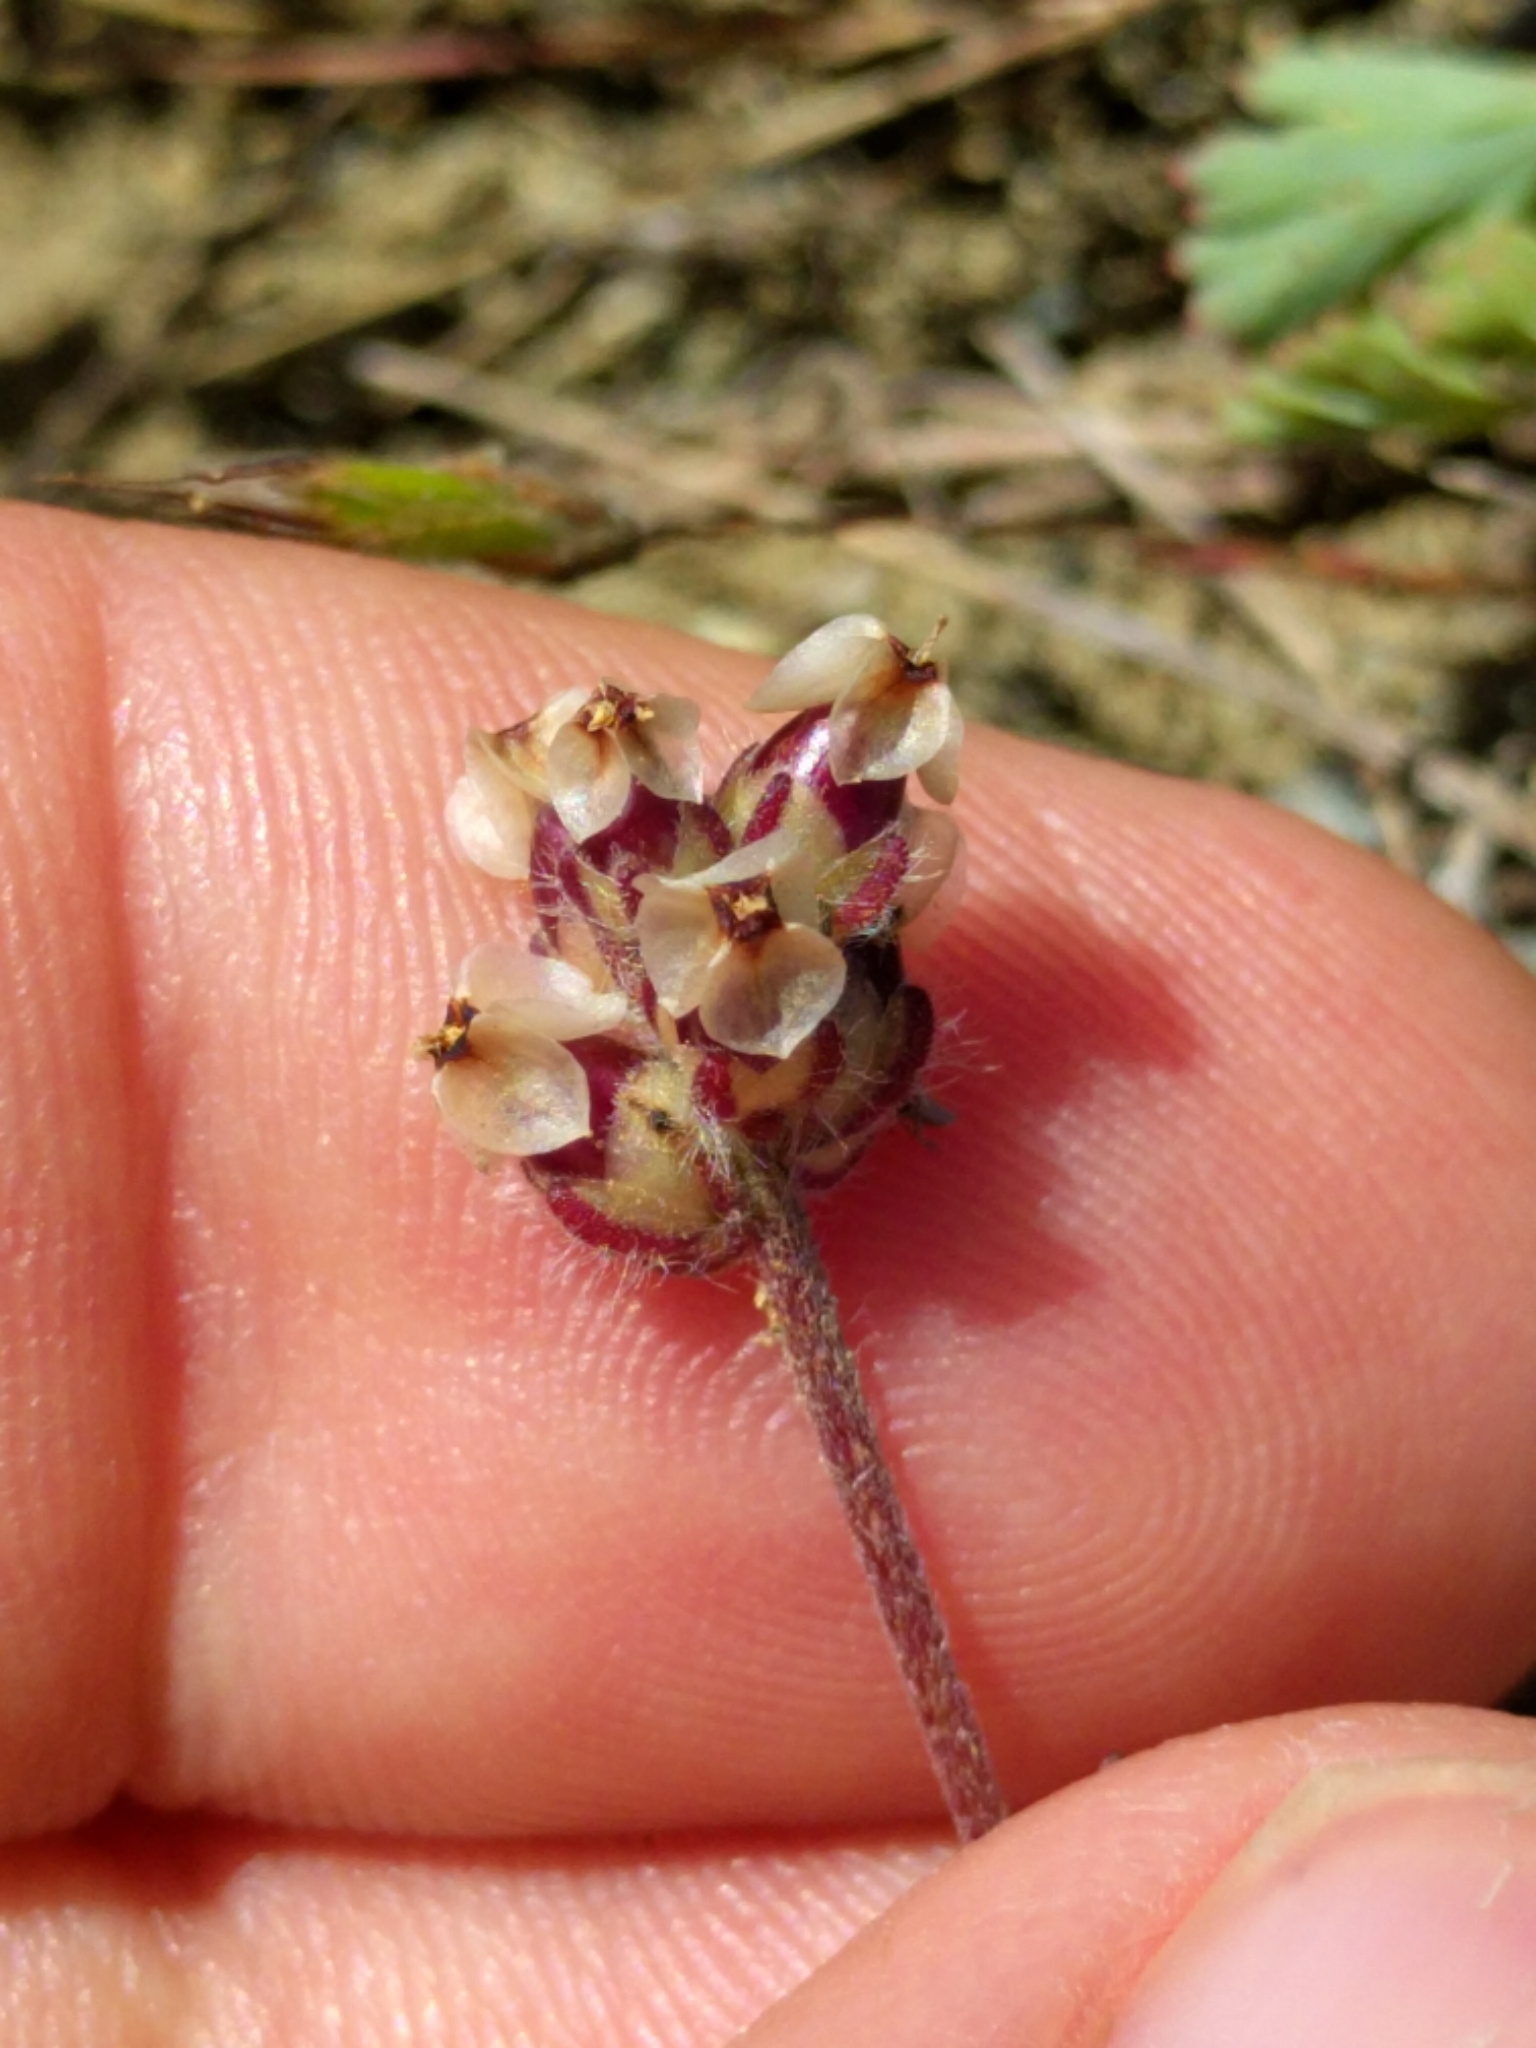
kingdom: Plantae
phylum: Tracheophyta
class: Magnoliopsida
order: Lamiales
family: Plantaginaceae
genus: Plantago
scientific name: Plantago erecta
